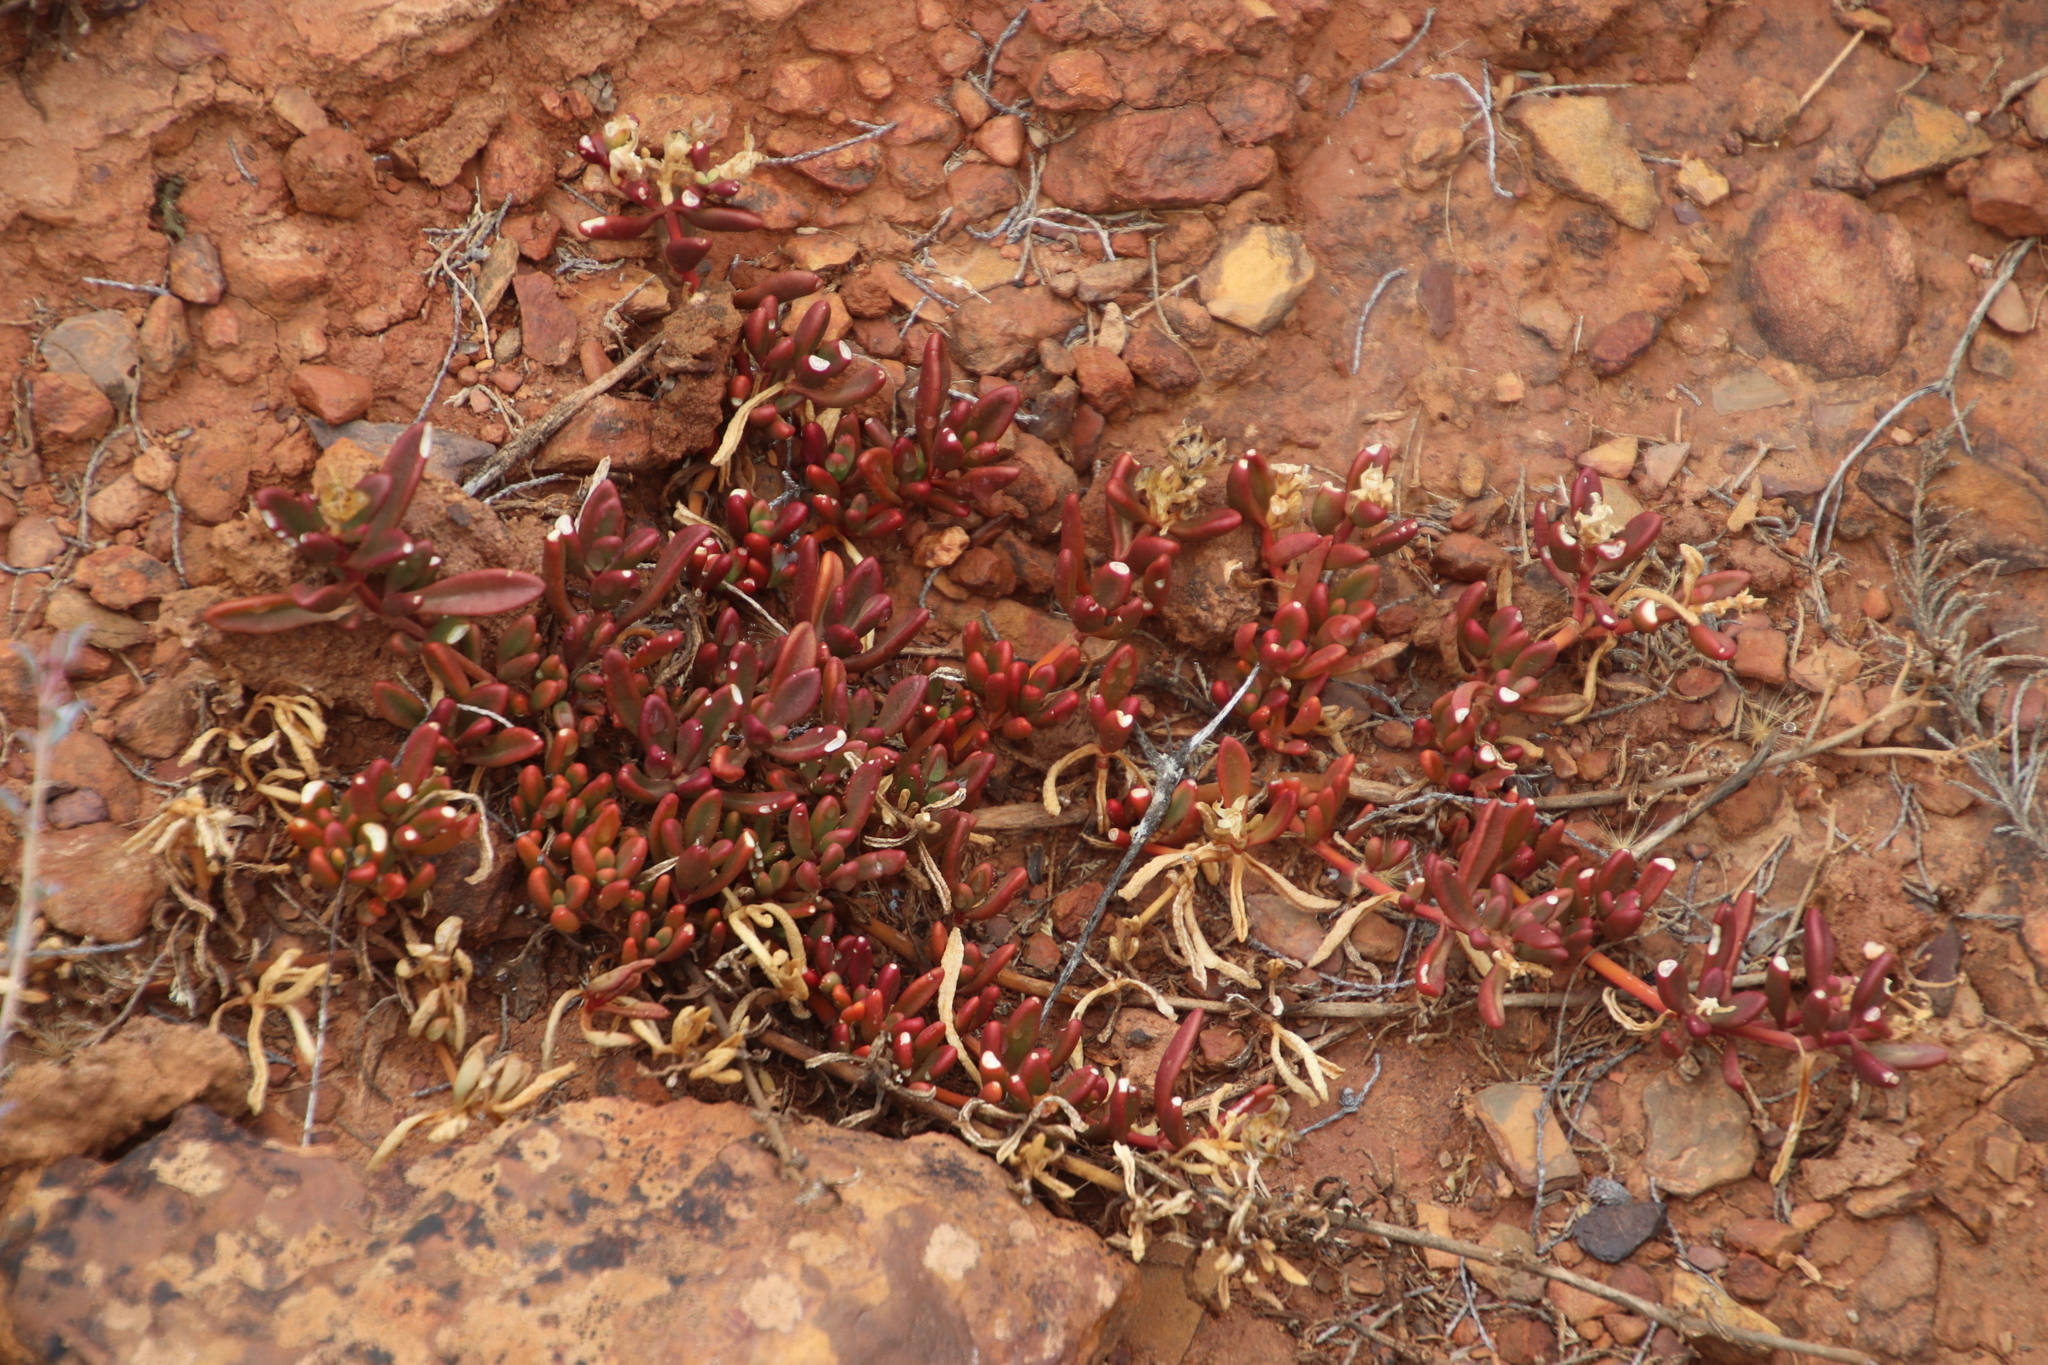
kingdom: Plantae
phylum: Tracheophyta
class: Magnoliopsida
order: Caryophyllales
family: Aizoaceae
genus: Mesembryanthemum
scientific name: Mesembryanthemum paulum
